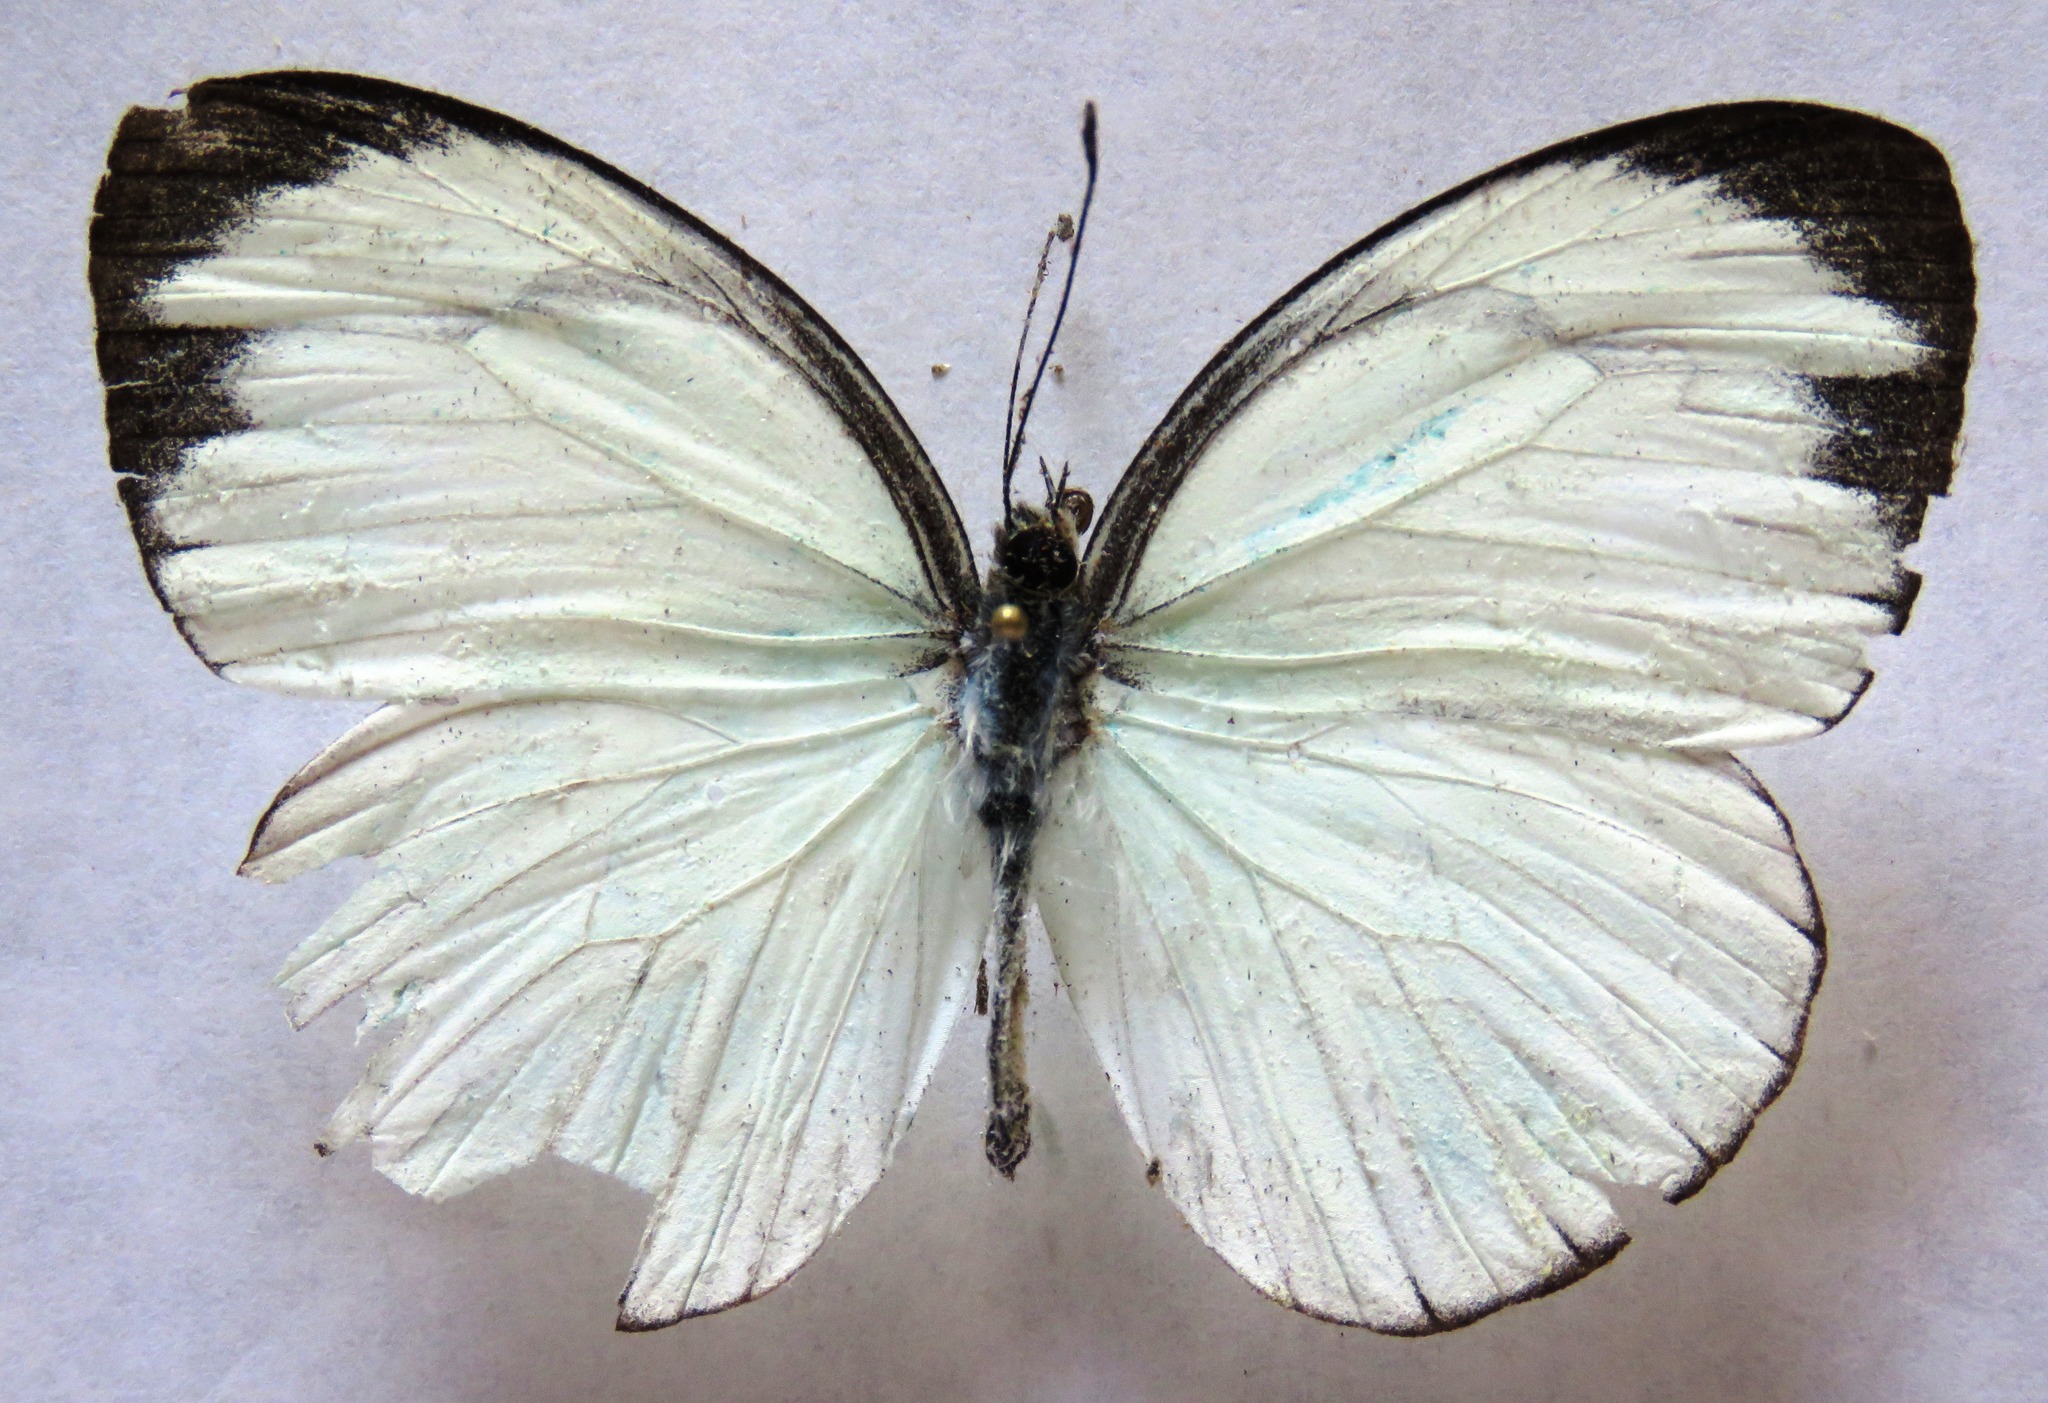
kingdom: Animalia
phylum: Arthropoda
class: Insecta
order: Lepidoptera
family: Pieridae
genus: Itaballia
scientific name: Itaballia demophile
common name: Cross-barred white
